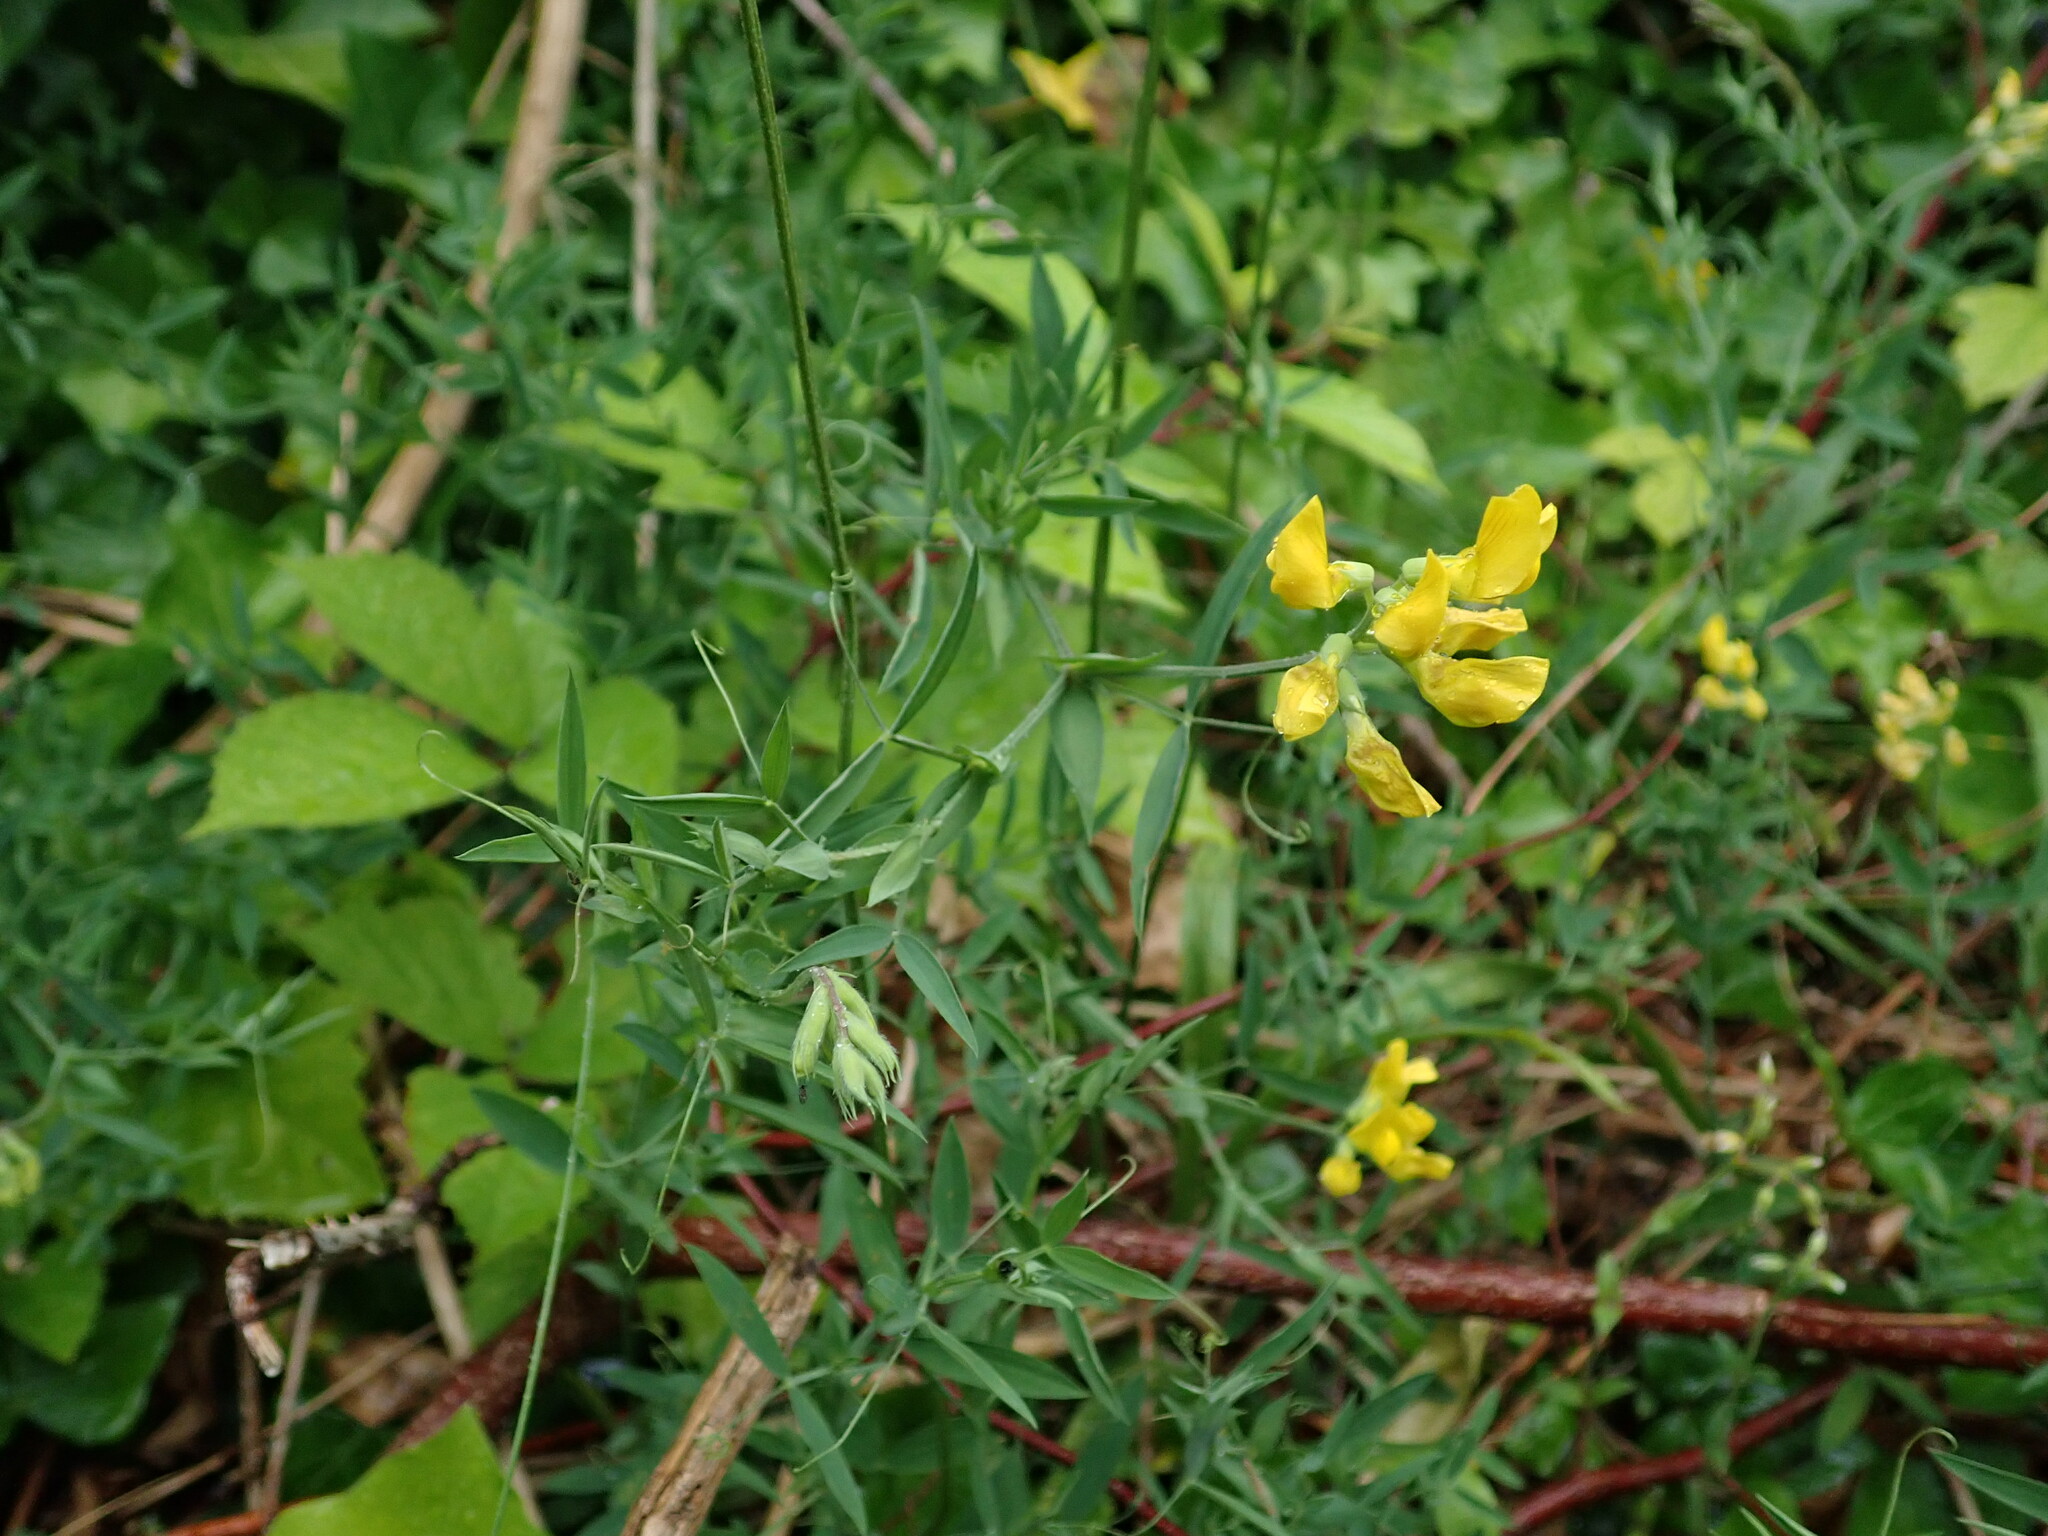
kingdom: Plantae
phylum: Tracheophyta
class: Magnoliopsida
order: Fabales
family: Fabaceae
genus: Lathyrus
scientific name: Lathyrus pratensis
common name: Meadow vetchling
